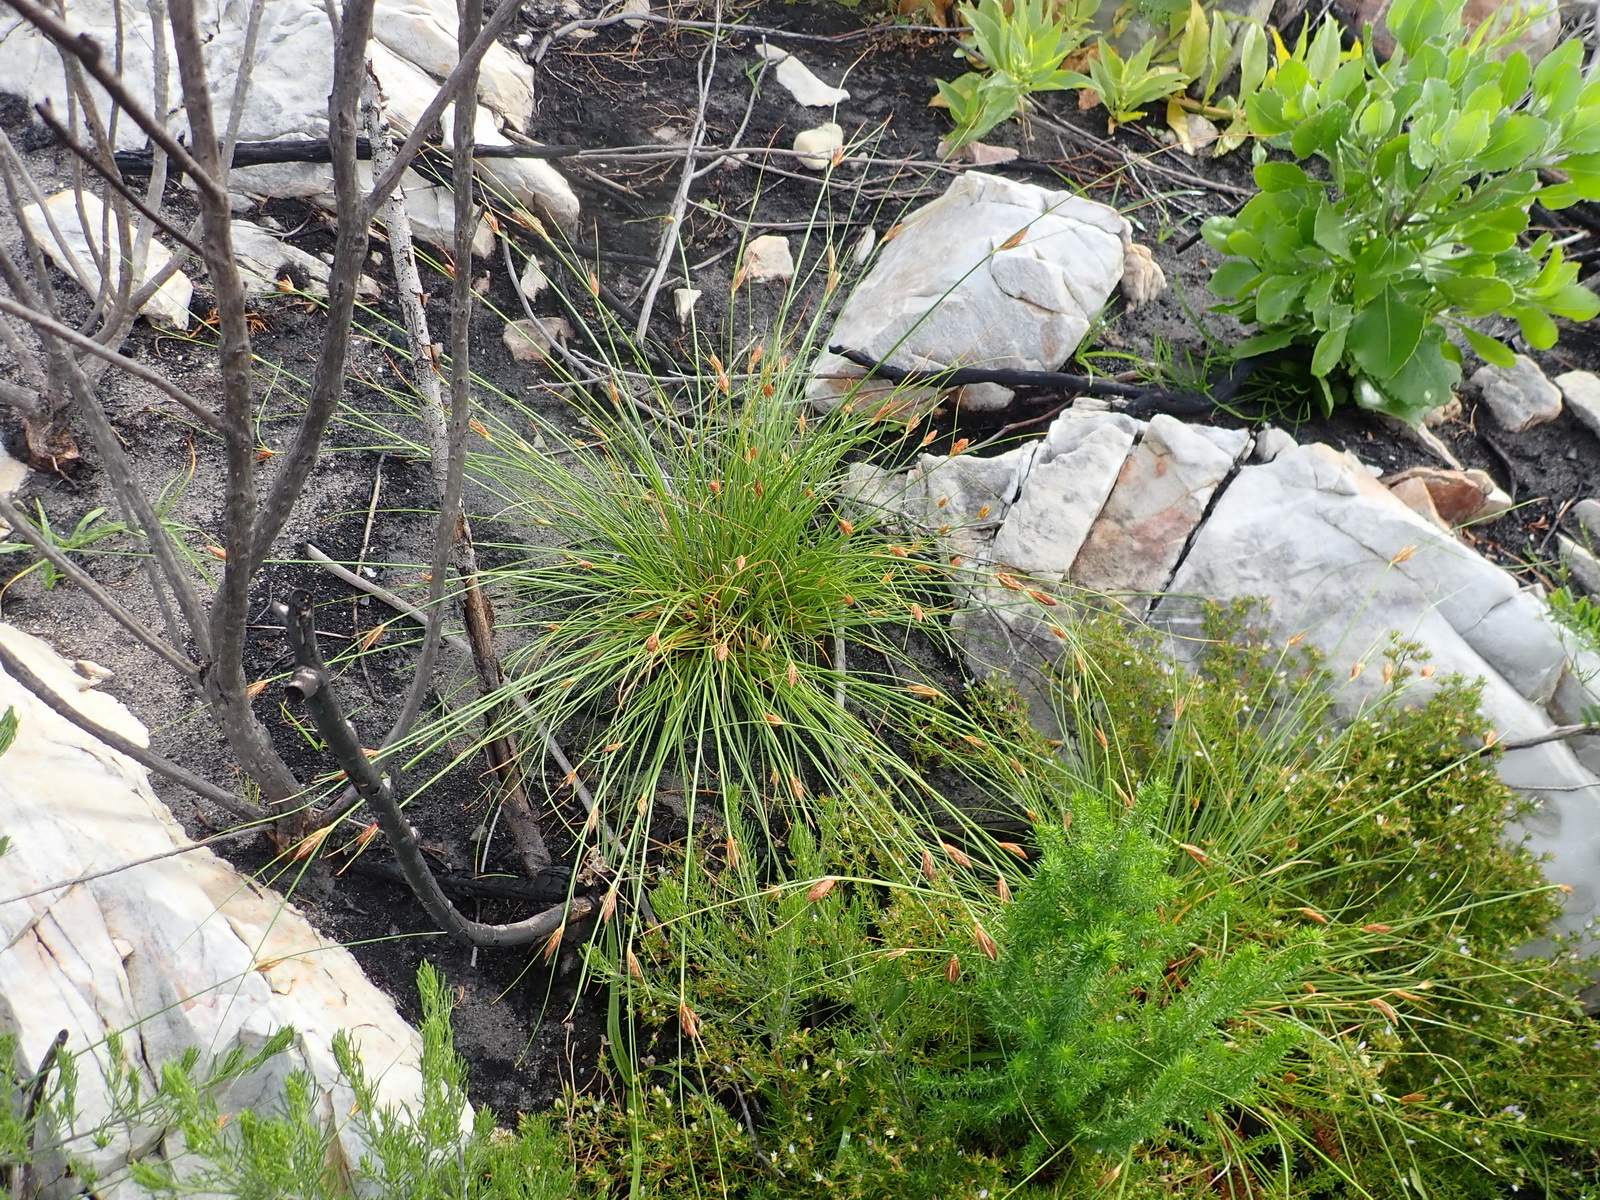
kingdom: Plantae
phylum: Tracheophyta
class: Liliopsida
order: Poales
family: Cyperaceae
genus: Ficinia
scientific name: Ficinia nigrescens
